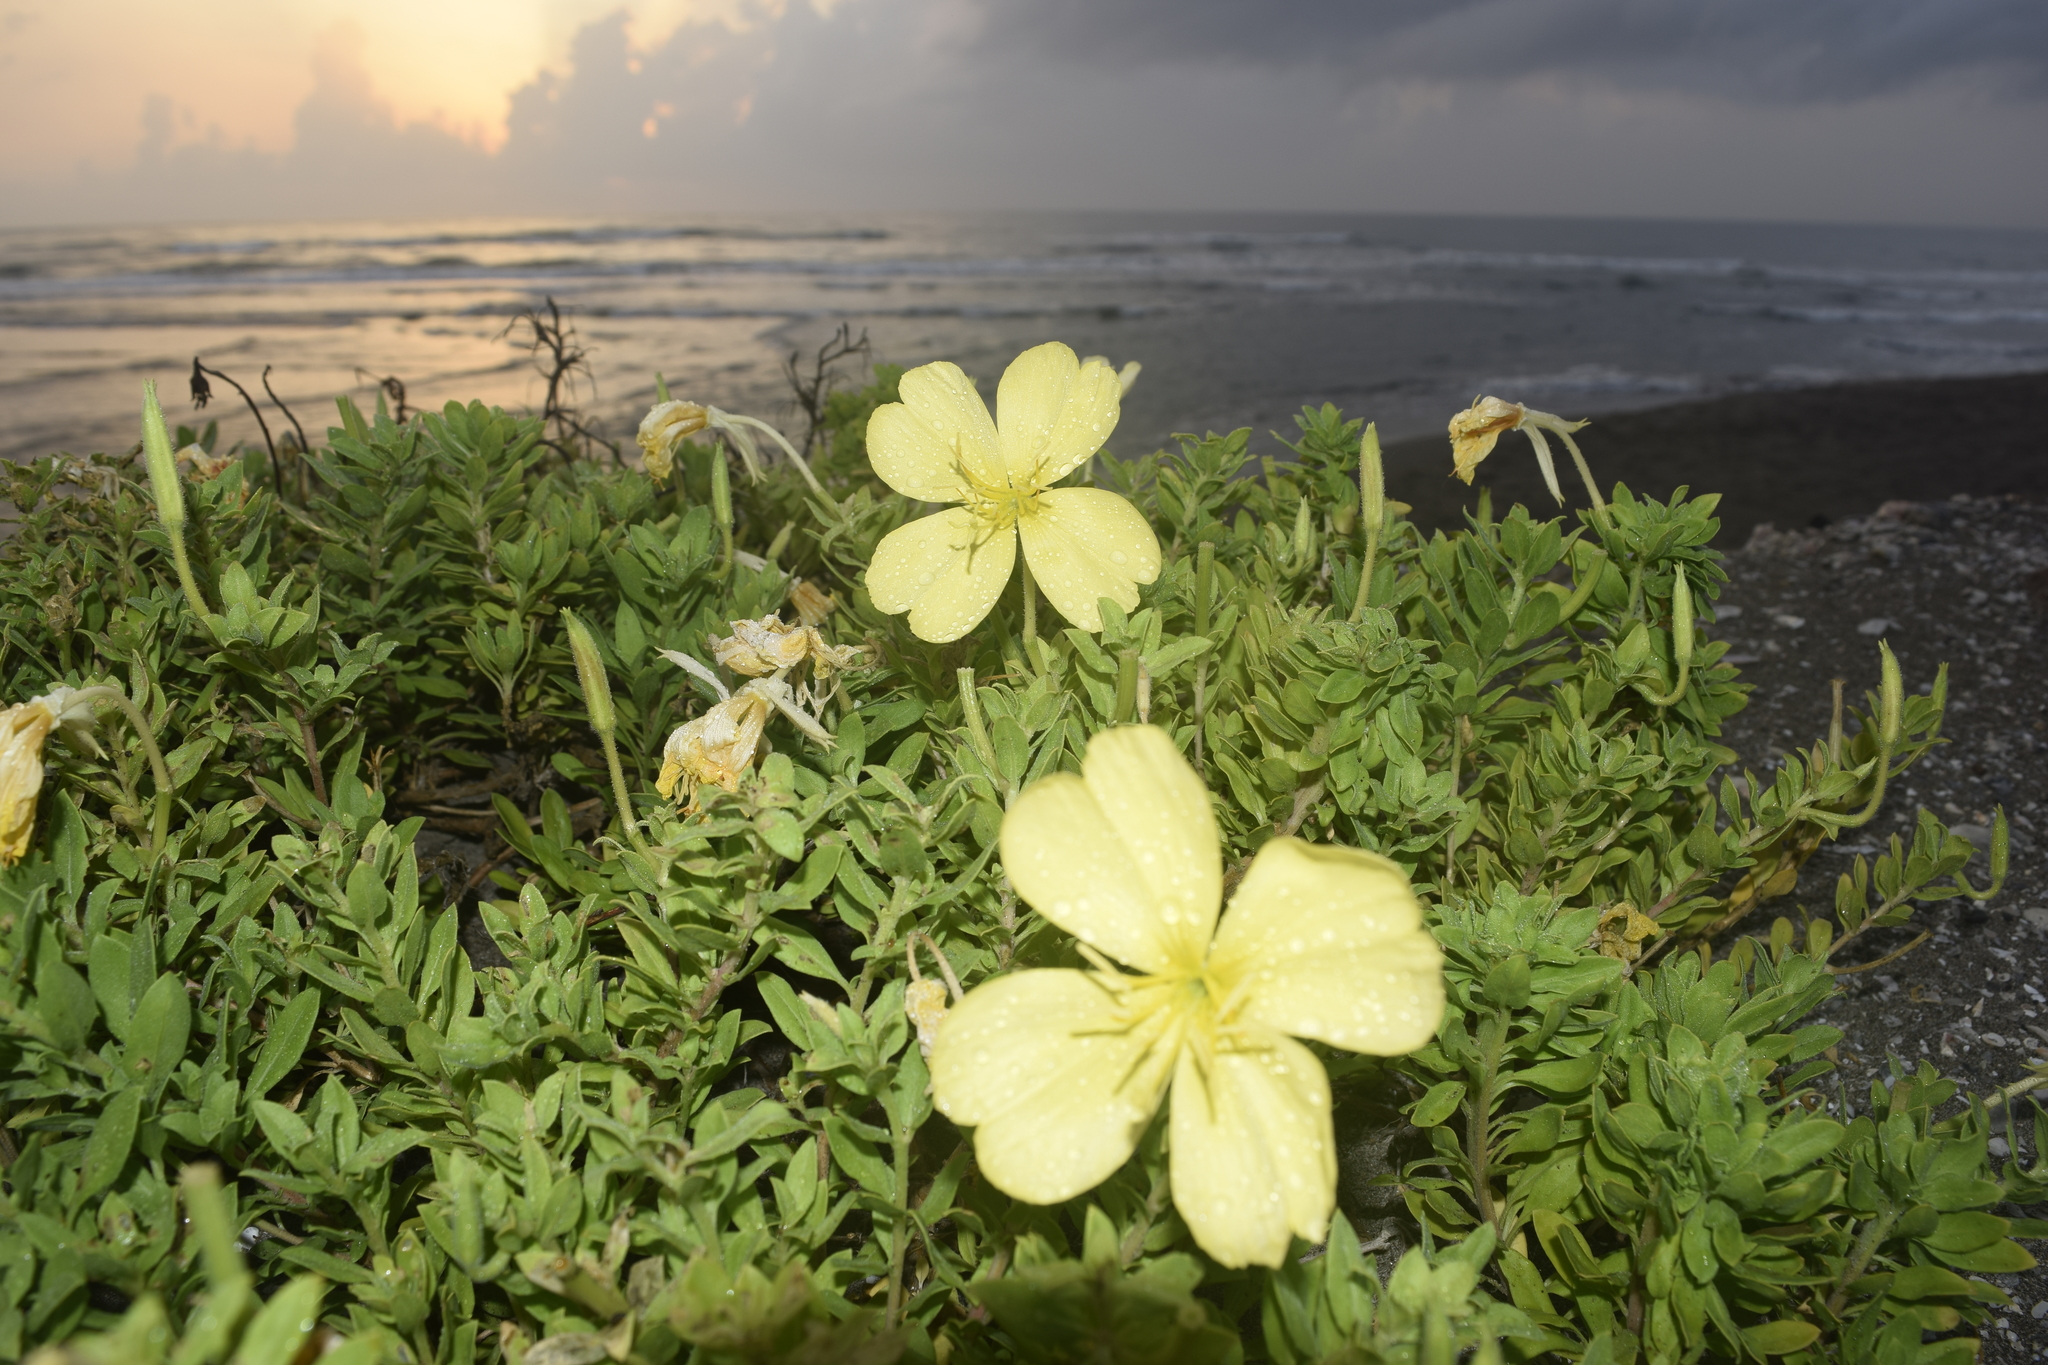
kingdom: Plantae
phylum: Tracheophyta
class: Magnoliopsida
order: Myrtales
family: Onagraceae
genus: Oenothera
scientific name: Oenothera drummondii
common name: Beach evening-primrose
